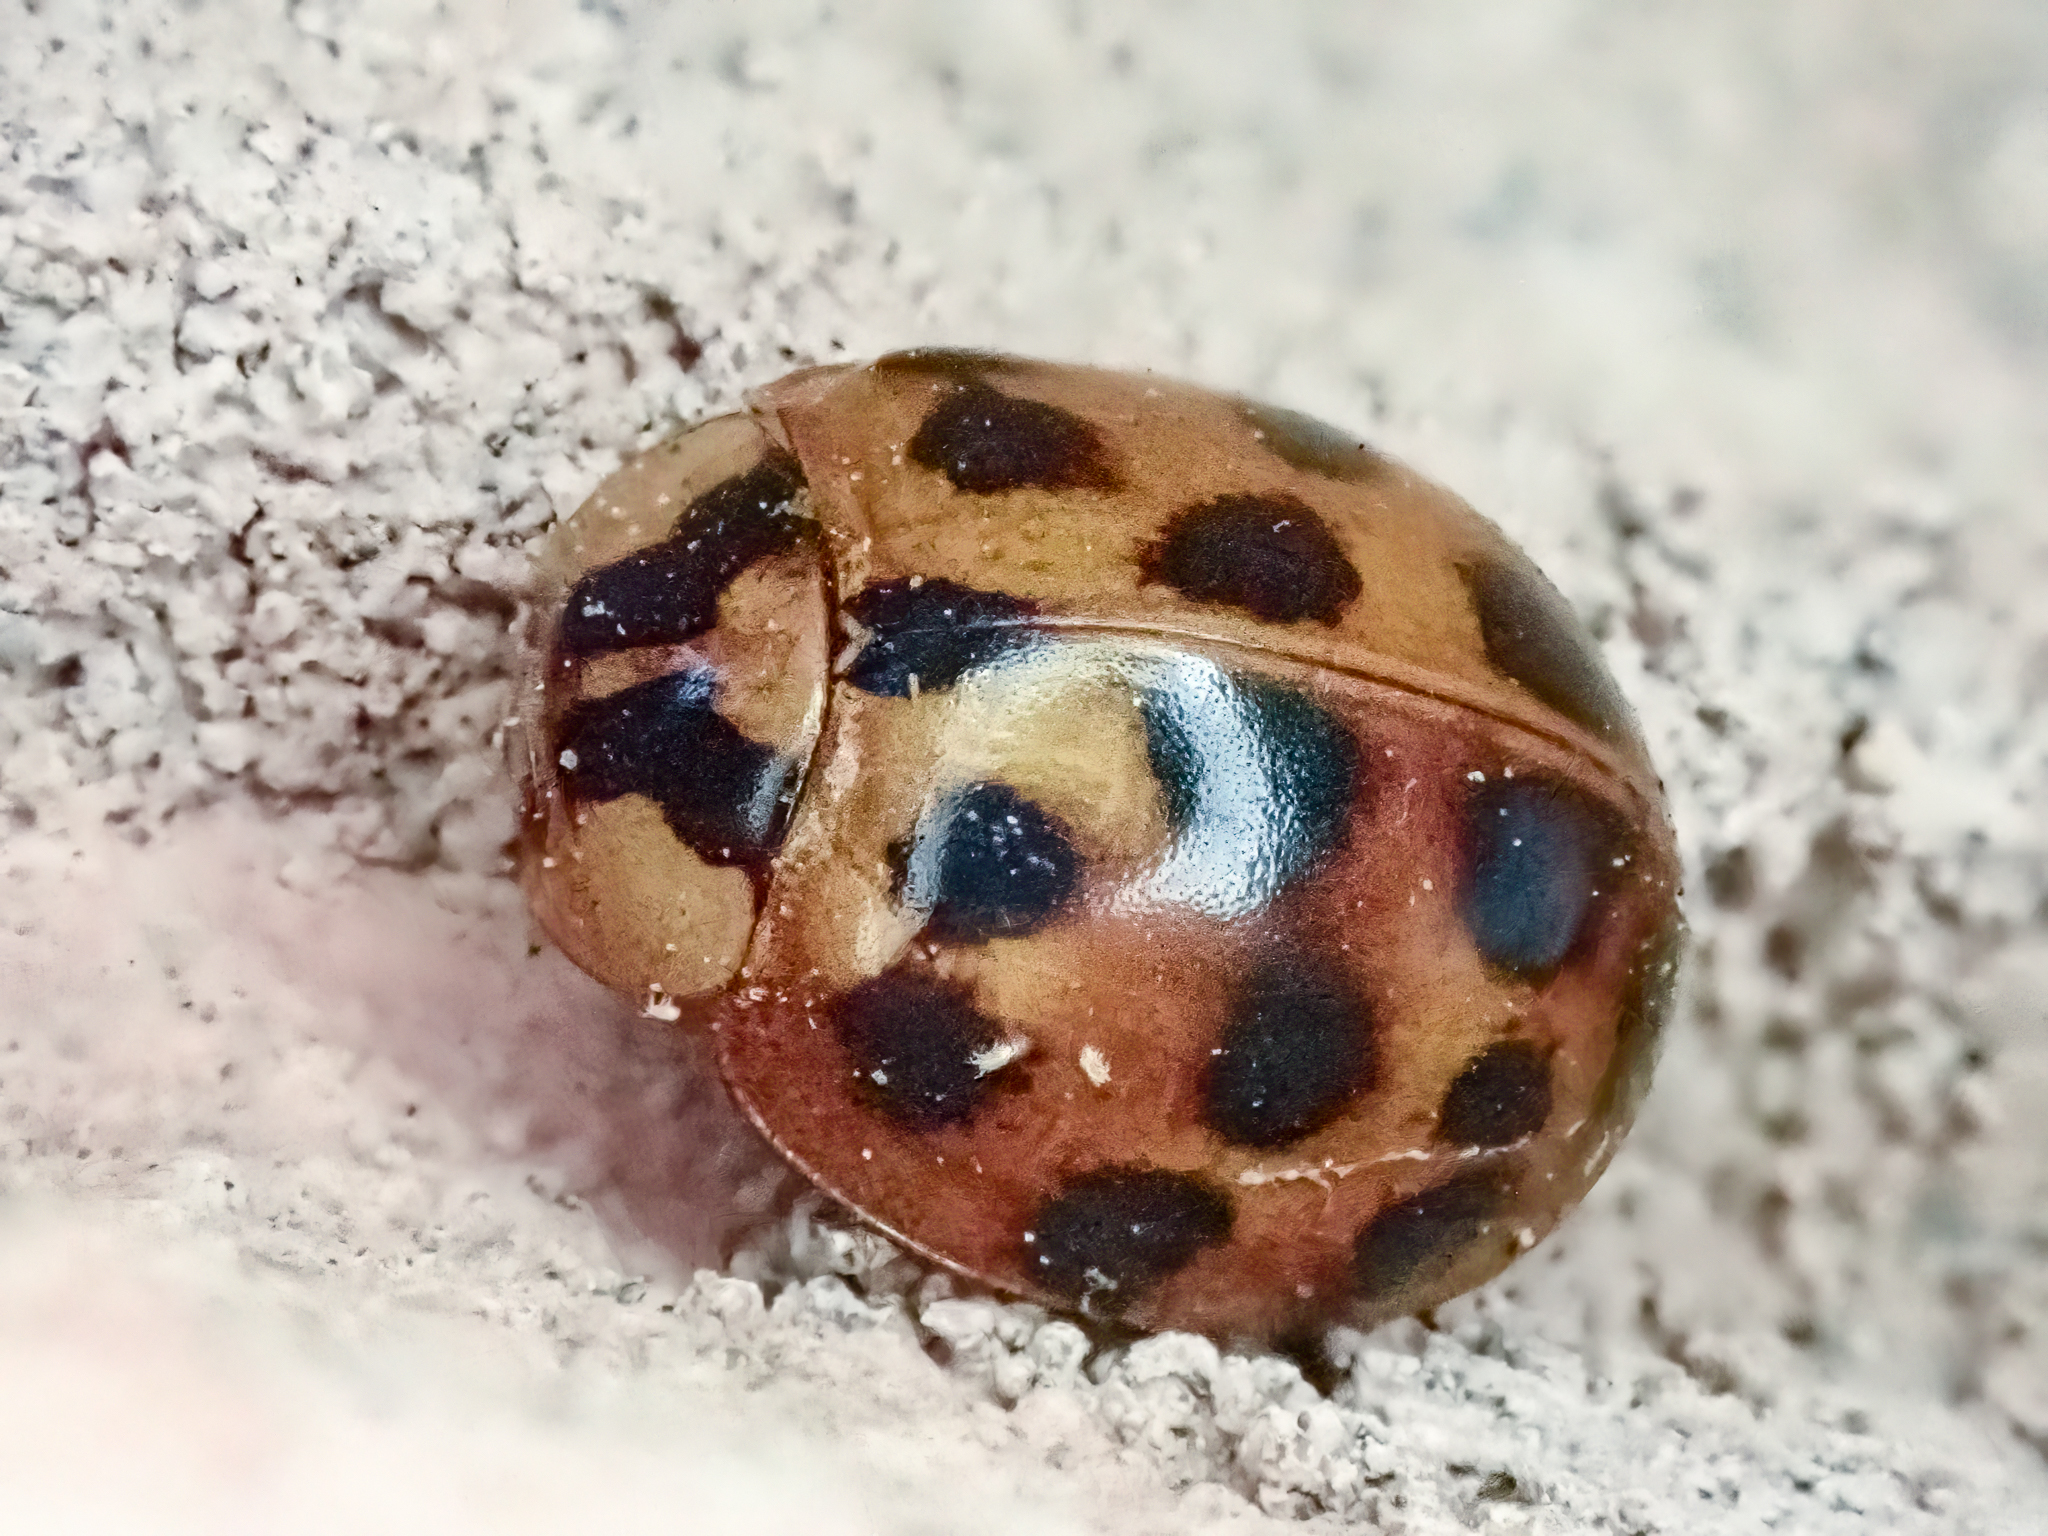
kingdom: Animalia
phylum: Arthropoda
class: Insecta
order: Coleoptera
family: Coccinellidae
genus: Harmonia
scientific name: Harmonia axyridis
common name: Harlequin ladybird
